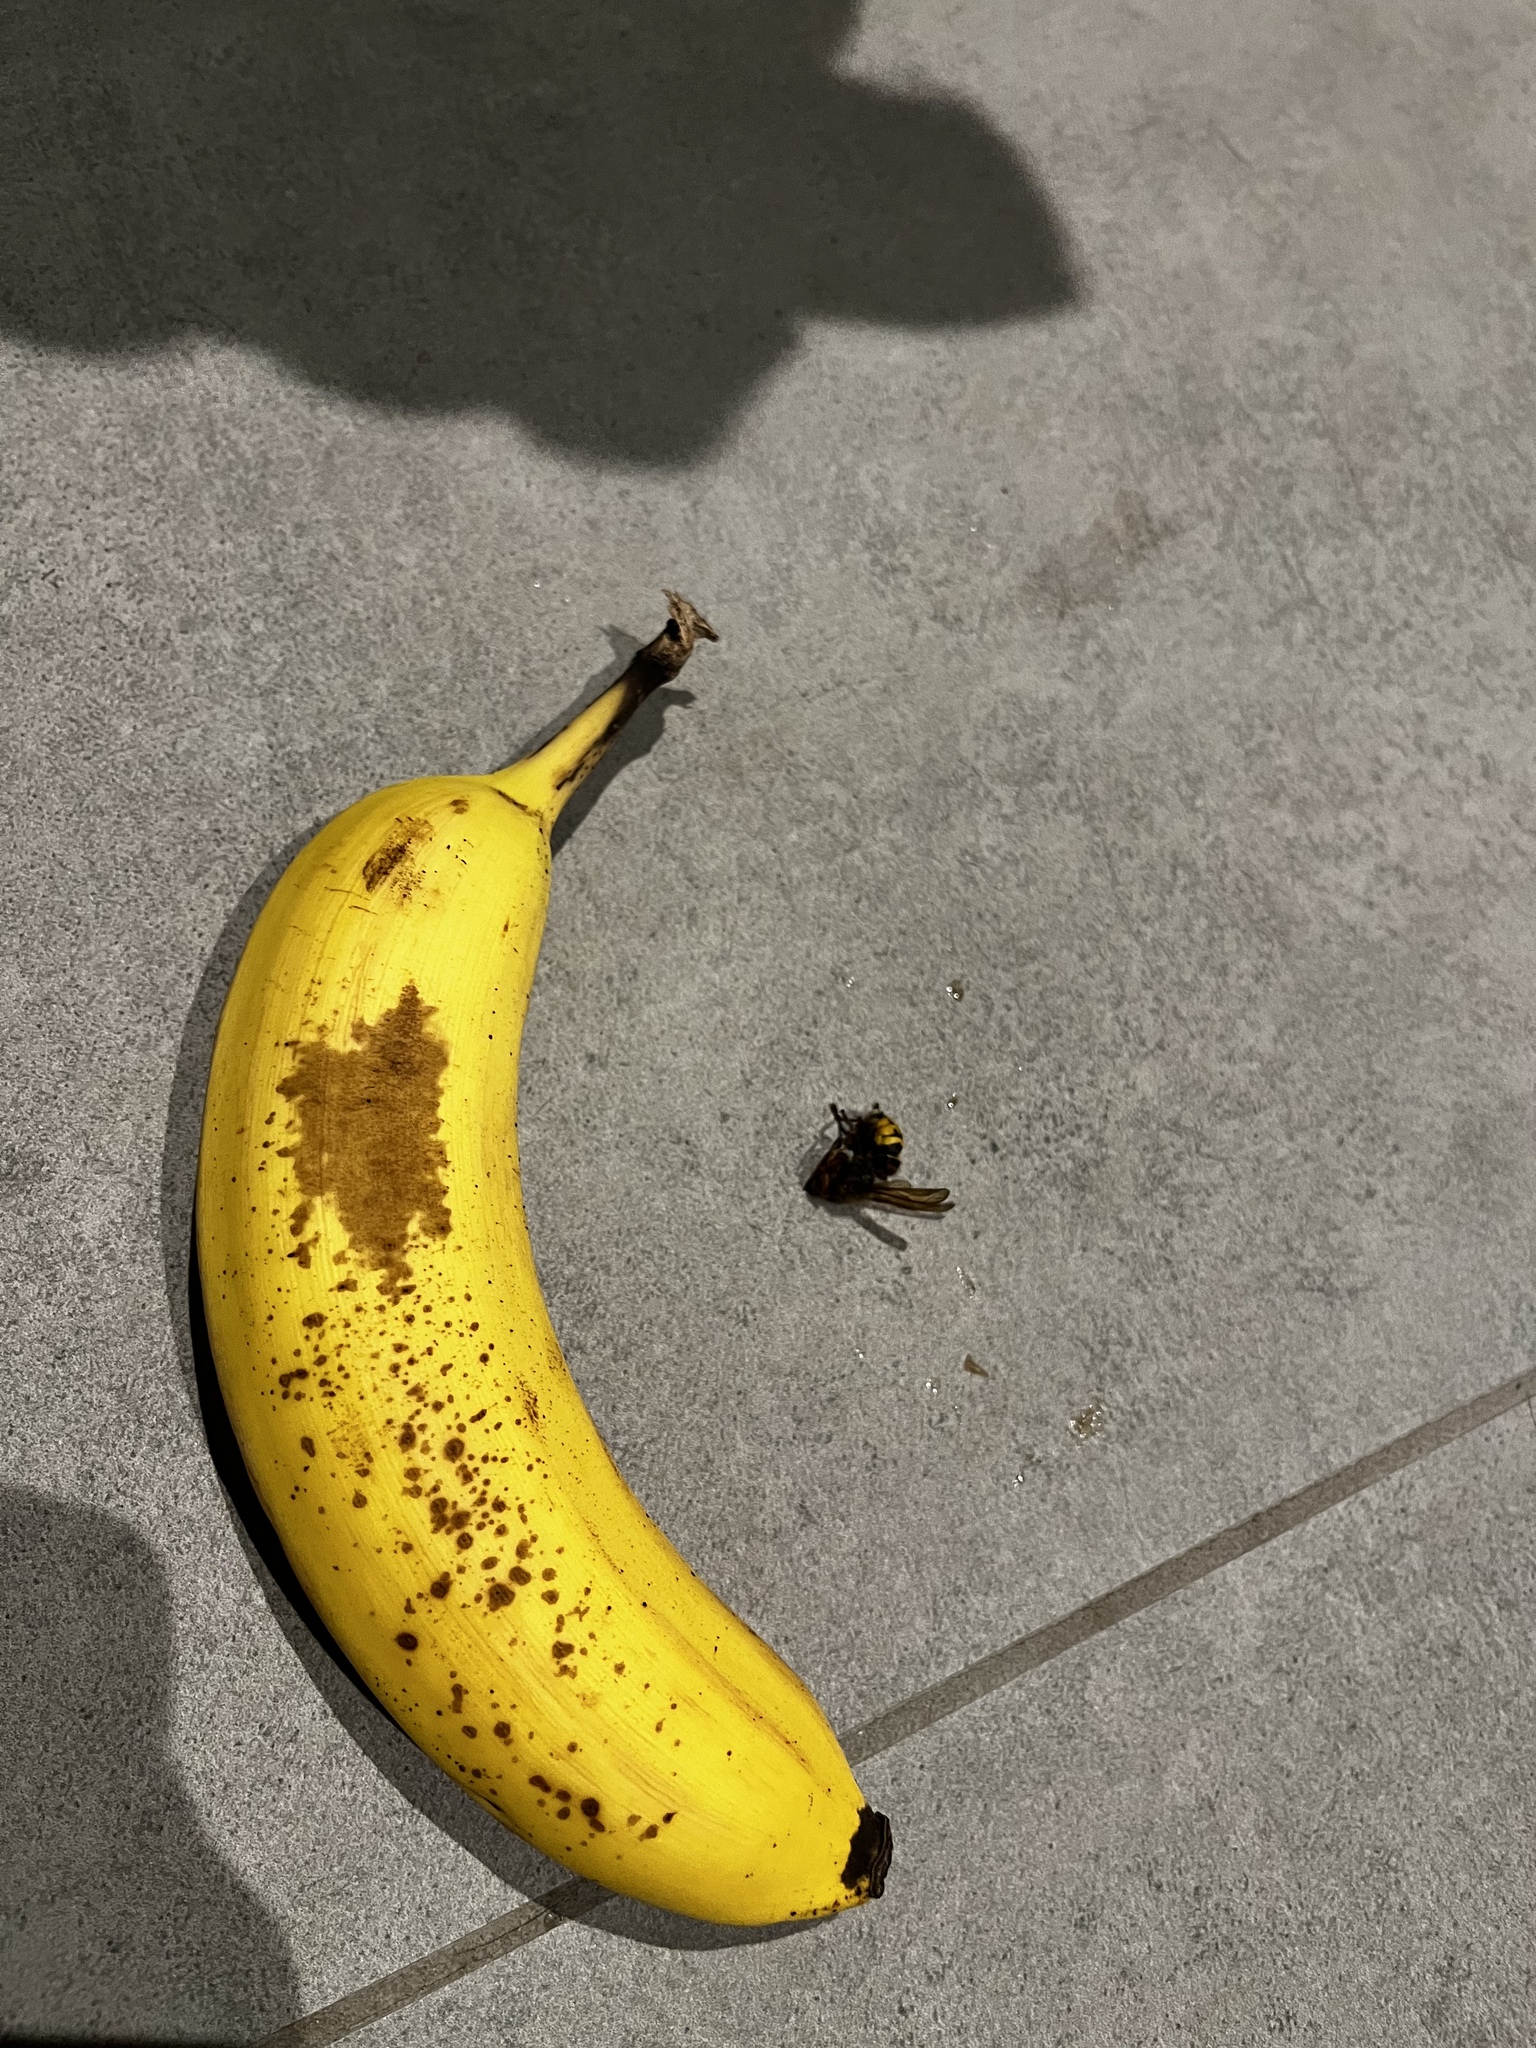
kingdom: Animalia
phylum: Arthropoda
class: Insecta
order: Hymenoptera
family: Vespidae
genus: Vespa
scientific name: Vespa crabro
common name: Hornet
